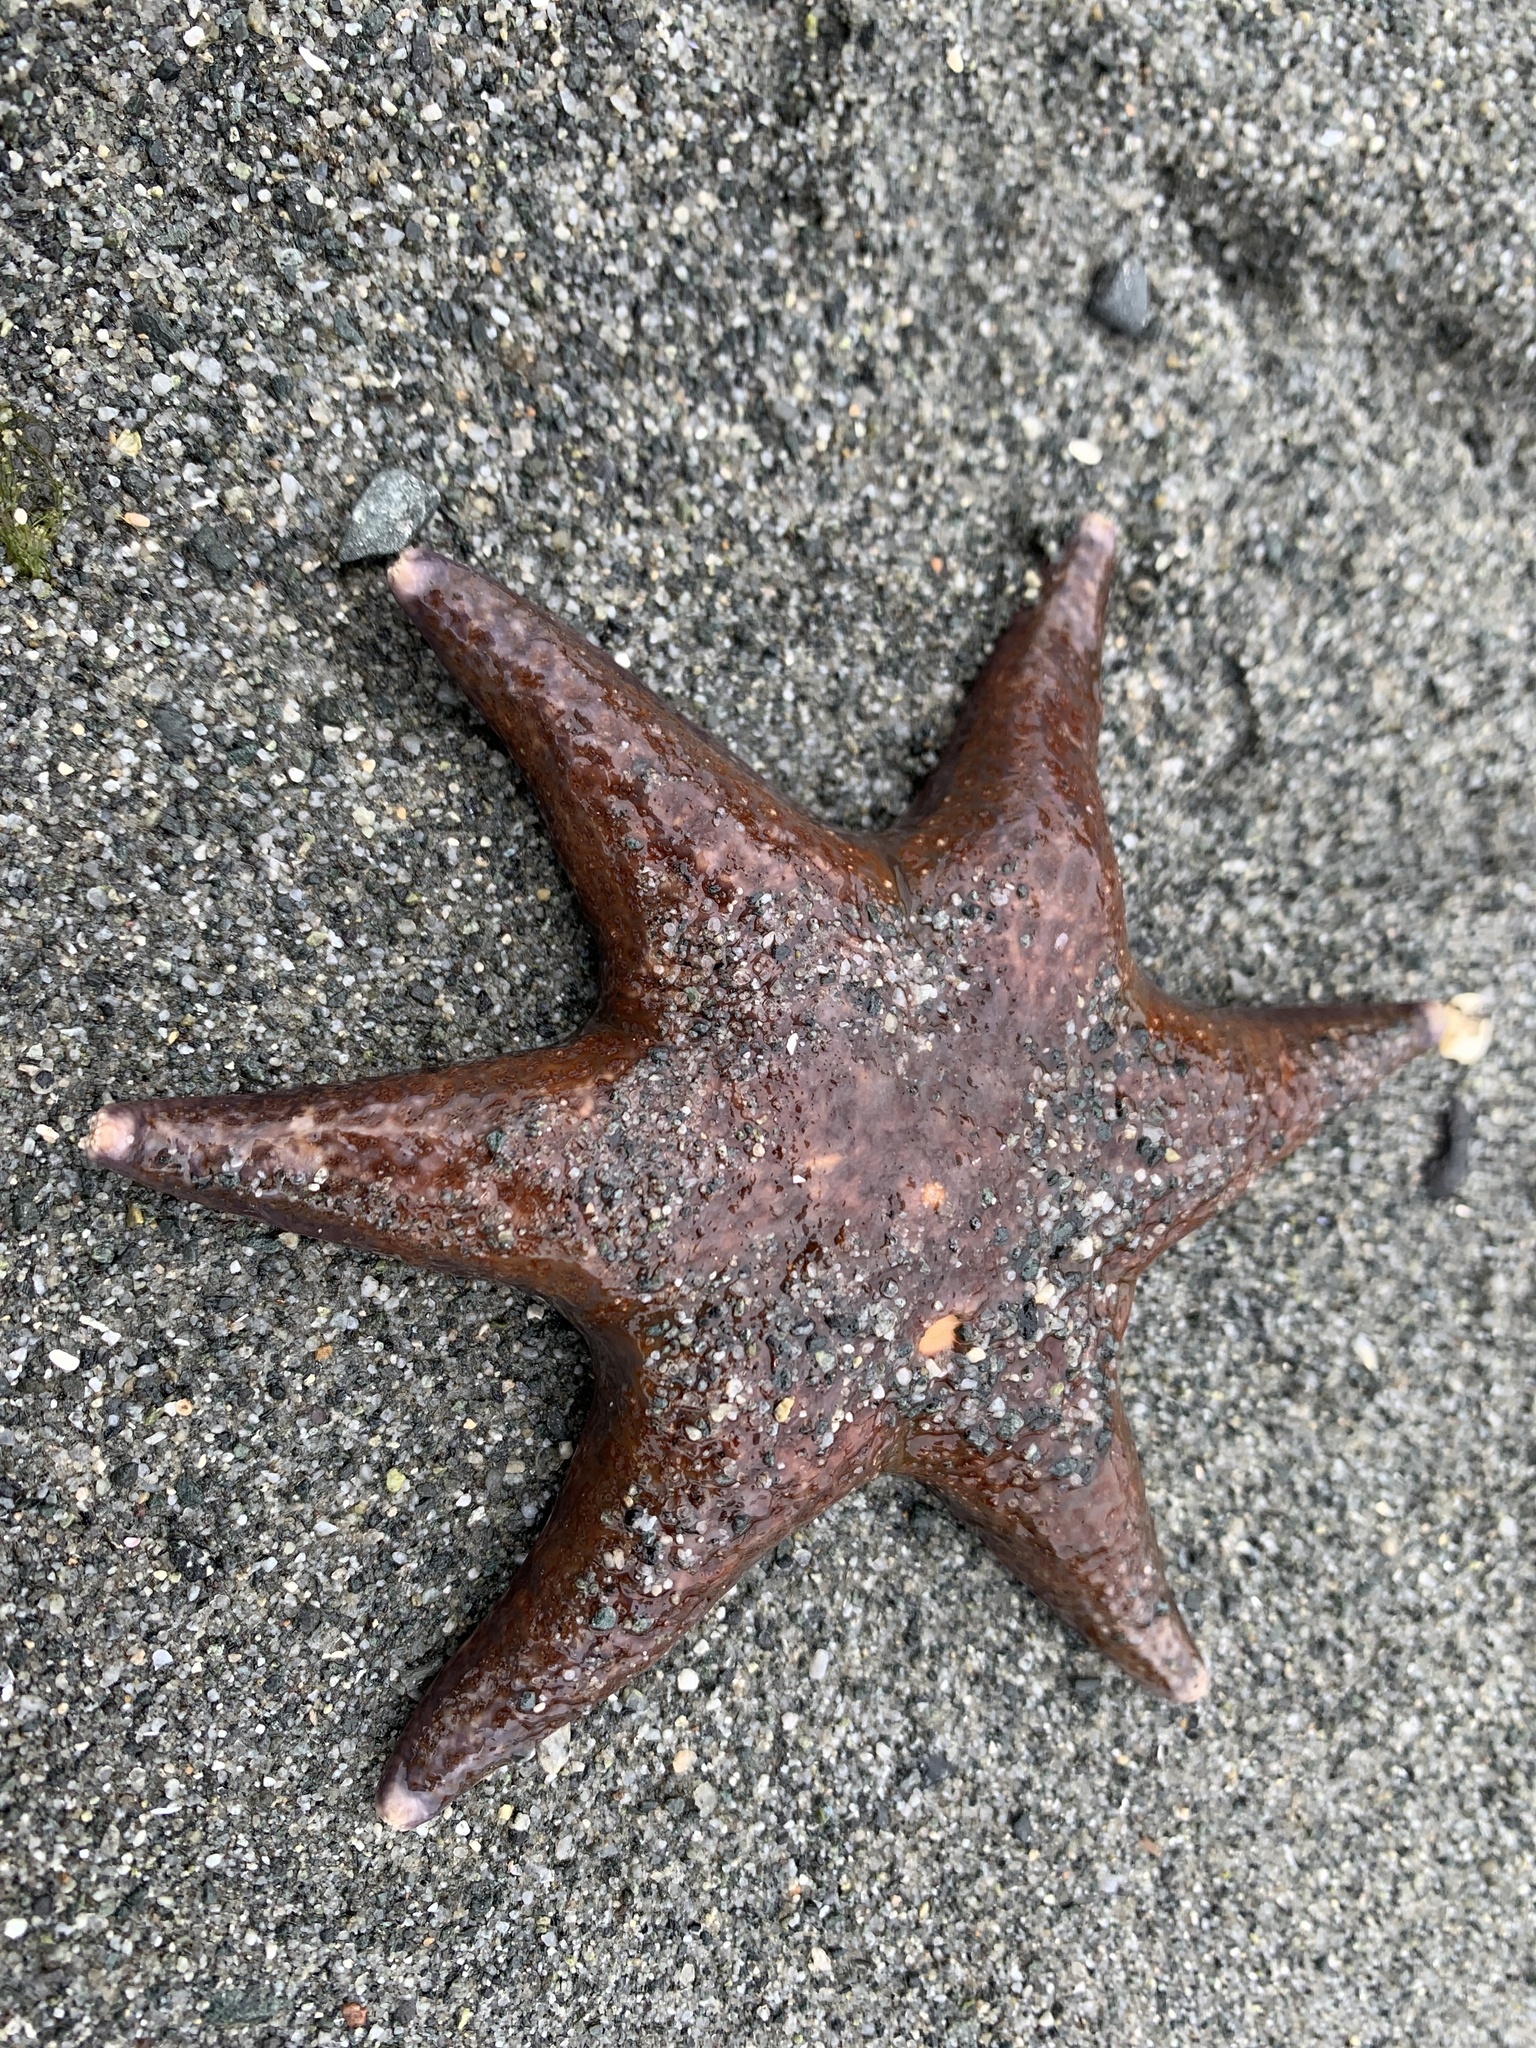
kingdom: Animalia
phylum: Echinodermata
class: Asteroidea
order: Valvatida
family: Asteropseidae
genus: Dermasterias
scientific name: Dermasterias imbricata
